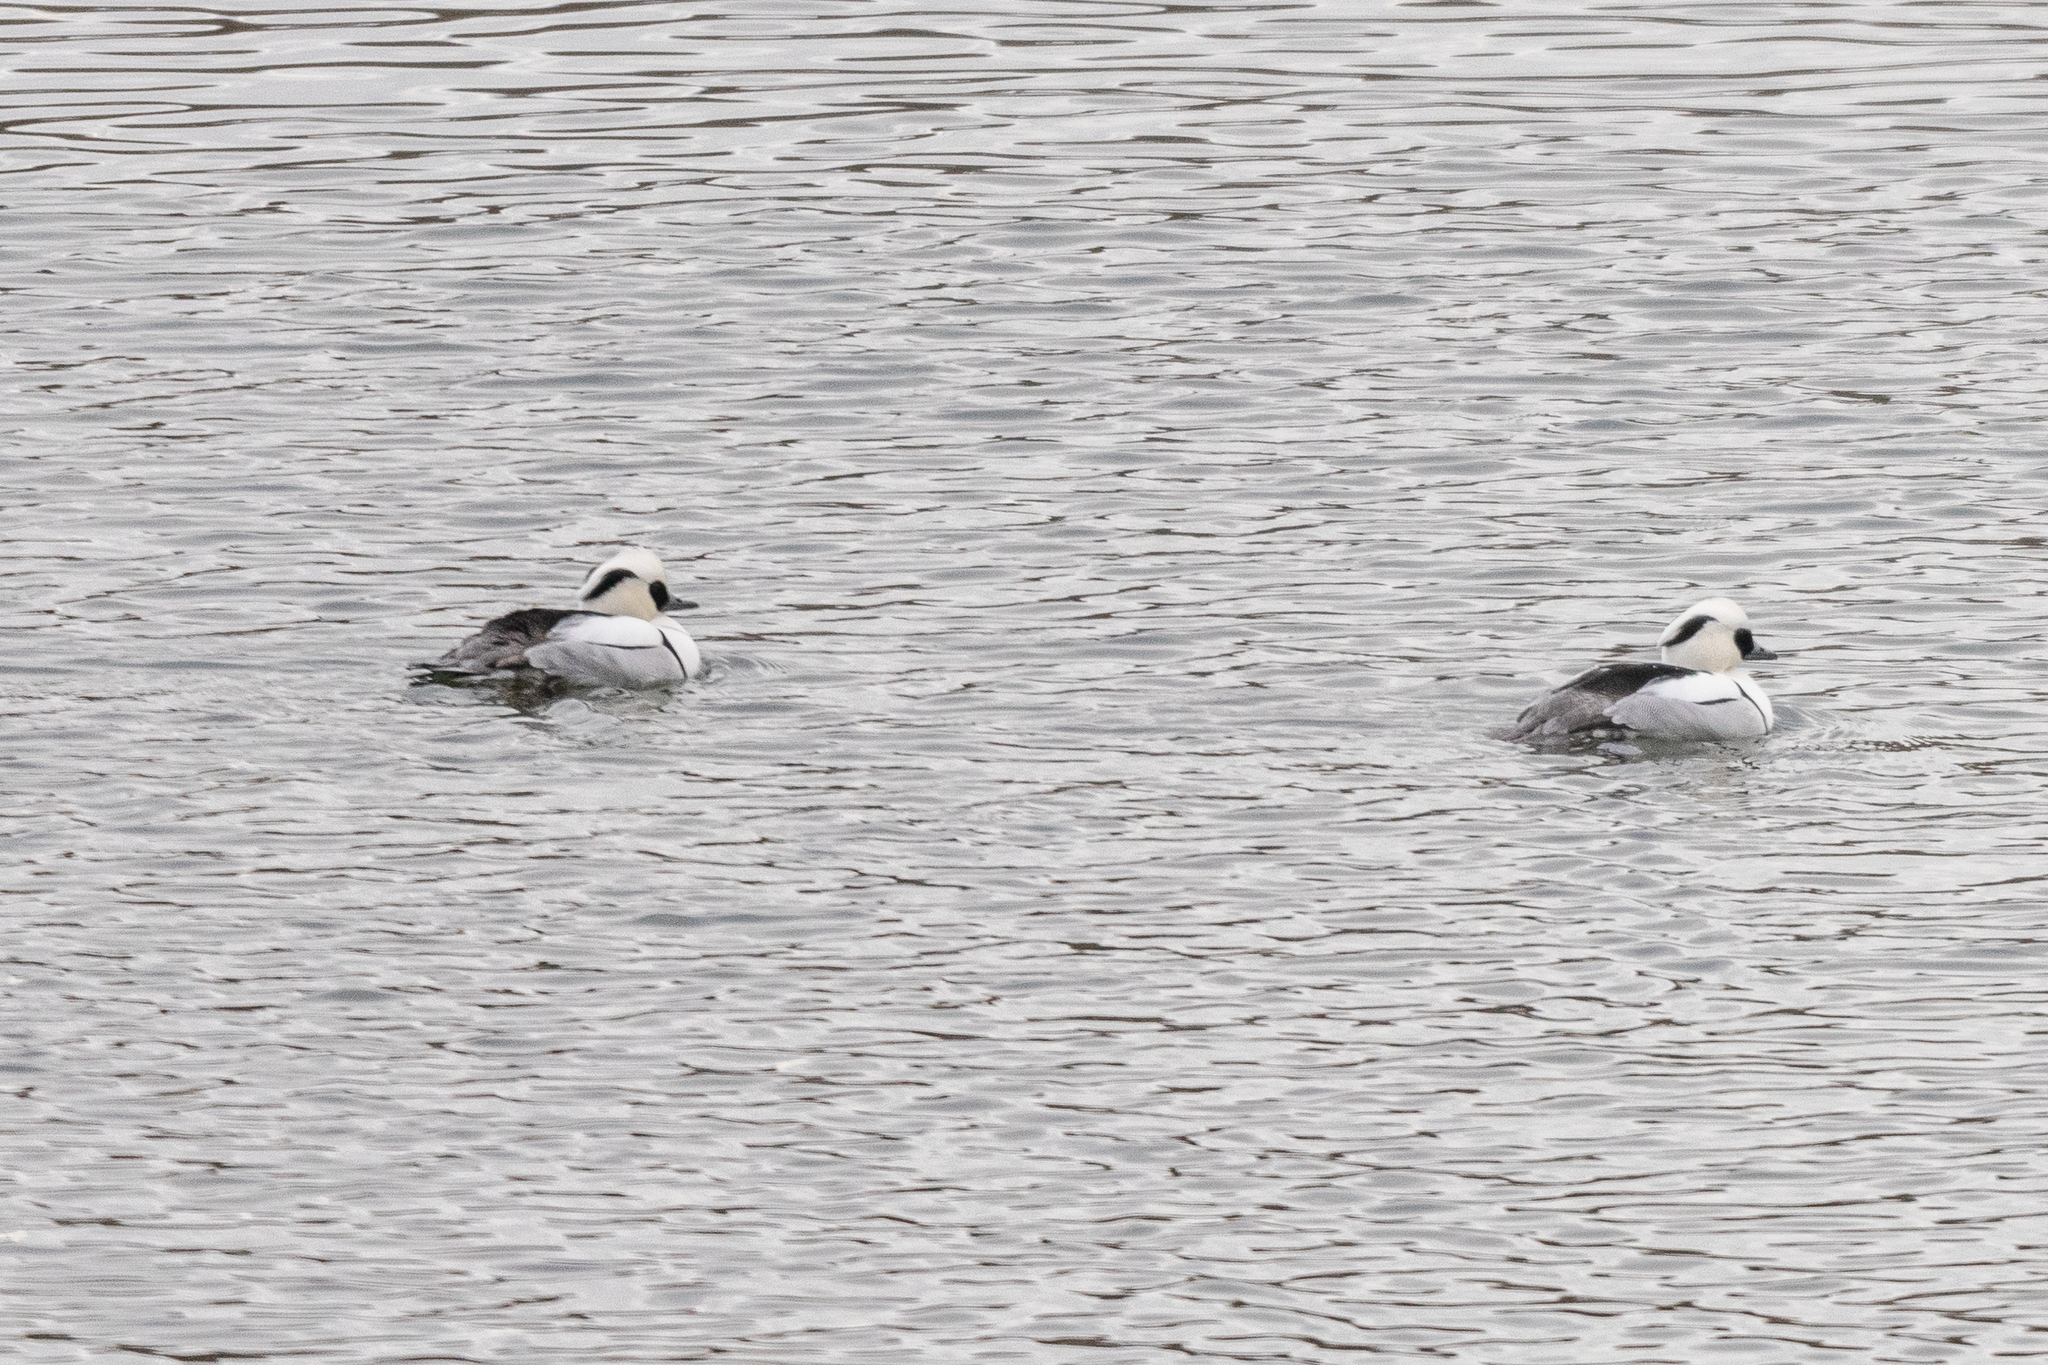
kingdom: Animalia
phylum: Chordata
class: Aves
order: Anseriformes
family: Anatidae
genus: Mergellus
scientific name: Mergellus albellus
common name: Smew
